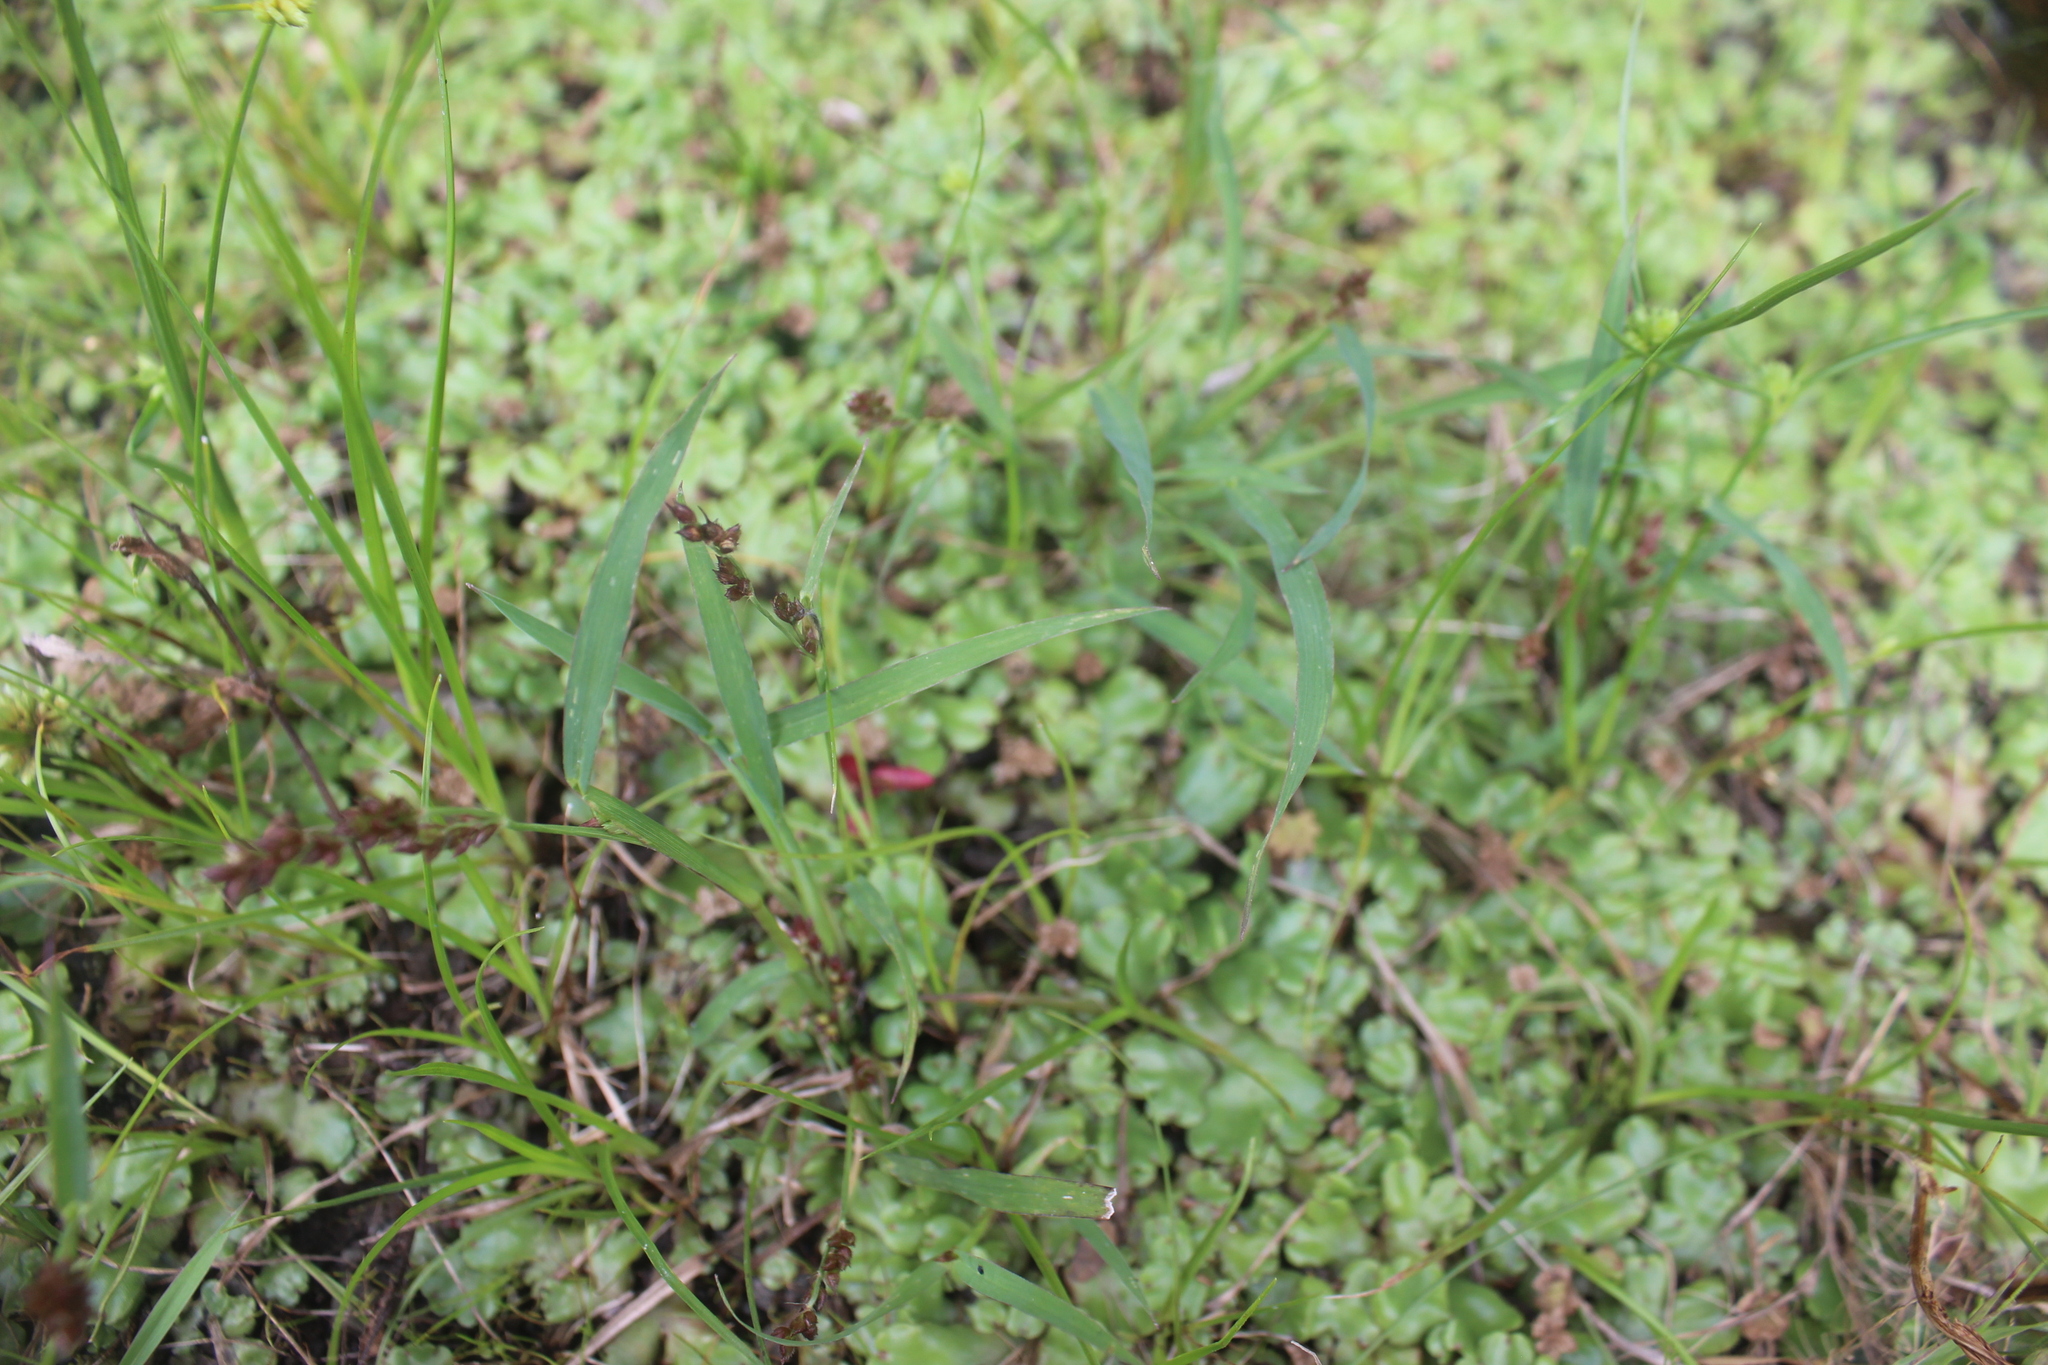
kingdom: Plantae
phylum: Tracheophyta
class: Liliopsida
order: Poales
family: Poaceae
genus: Echinochloa
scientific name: Echinochloa crus-galli
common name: Cockspur
